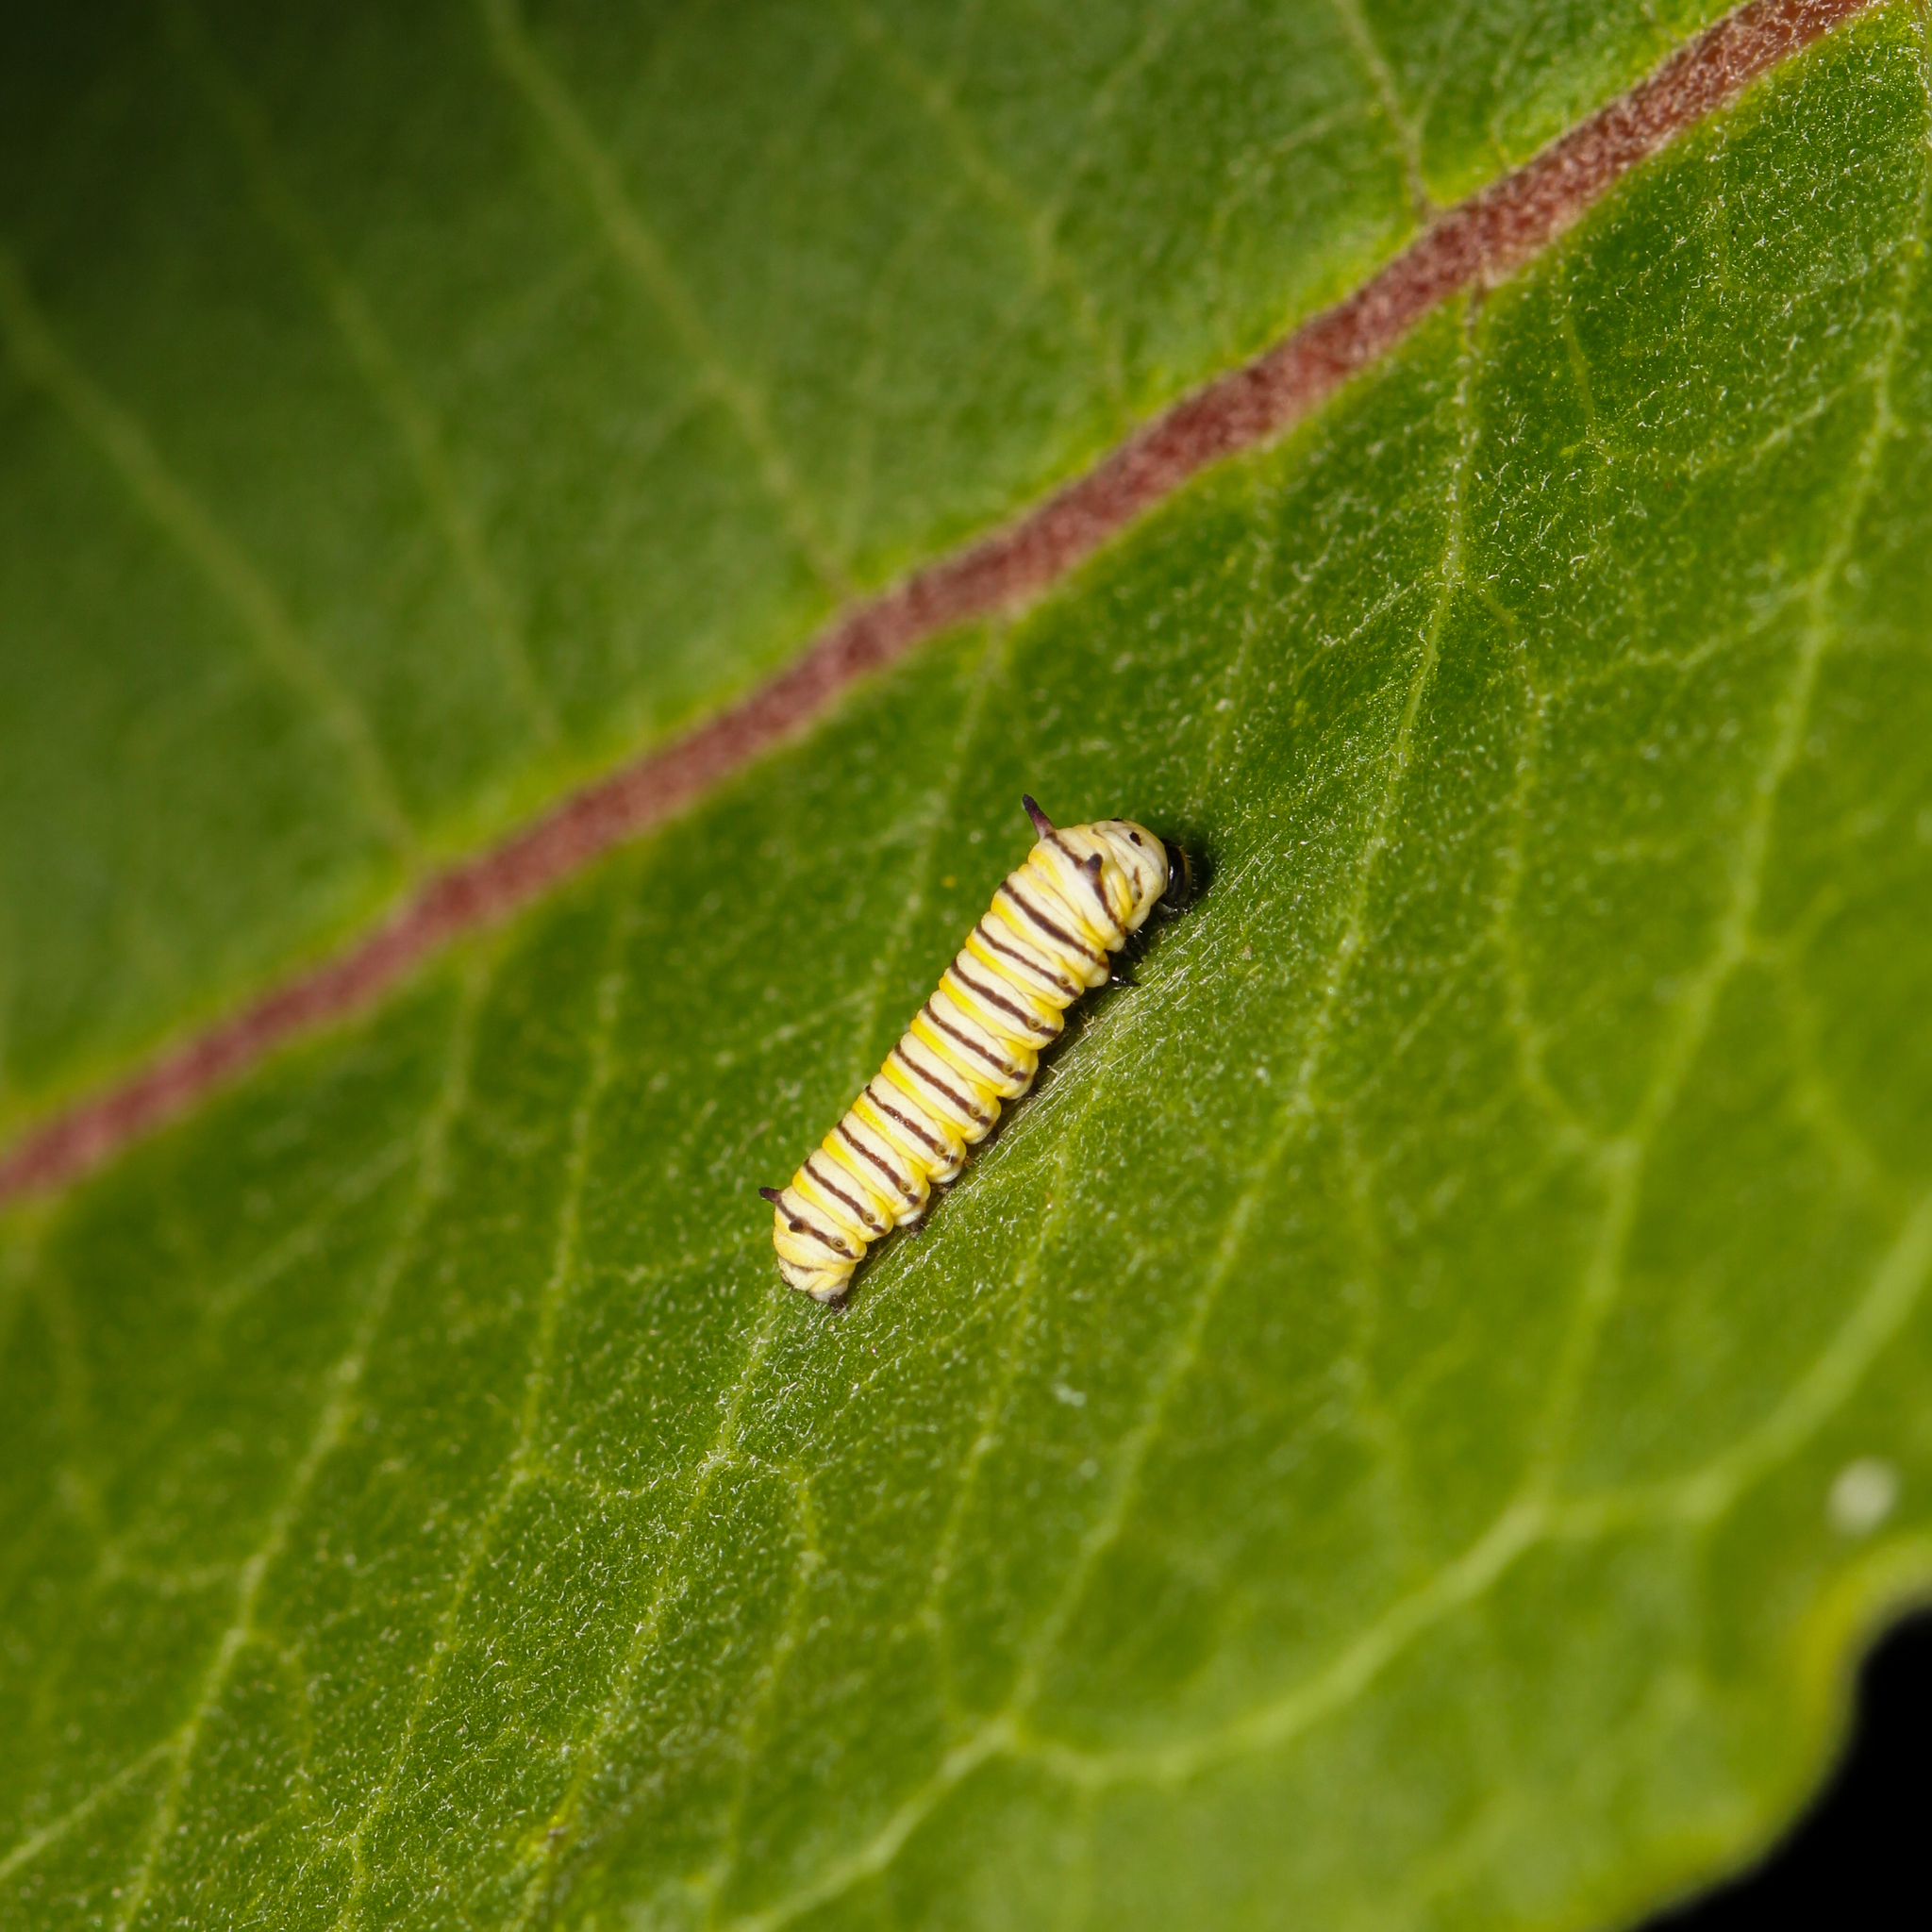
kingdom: Animalia
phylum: Arthropoda
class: Insecta
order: Lepidoptera
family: Nymphalidae
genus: Danaus
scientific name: Danaus plexippus
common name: Monarch
